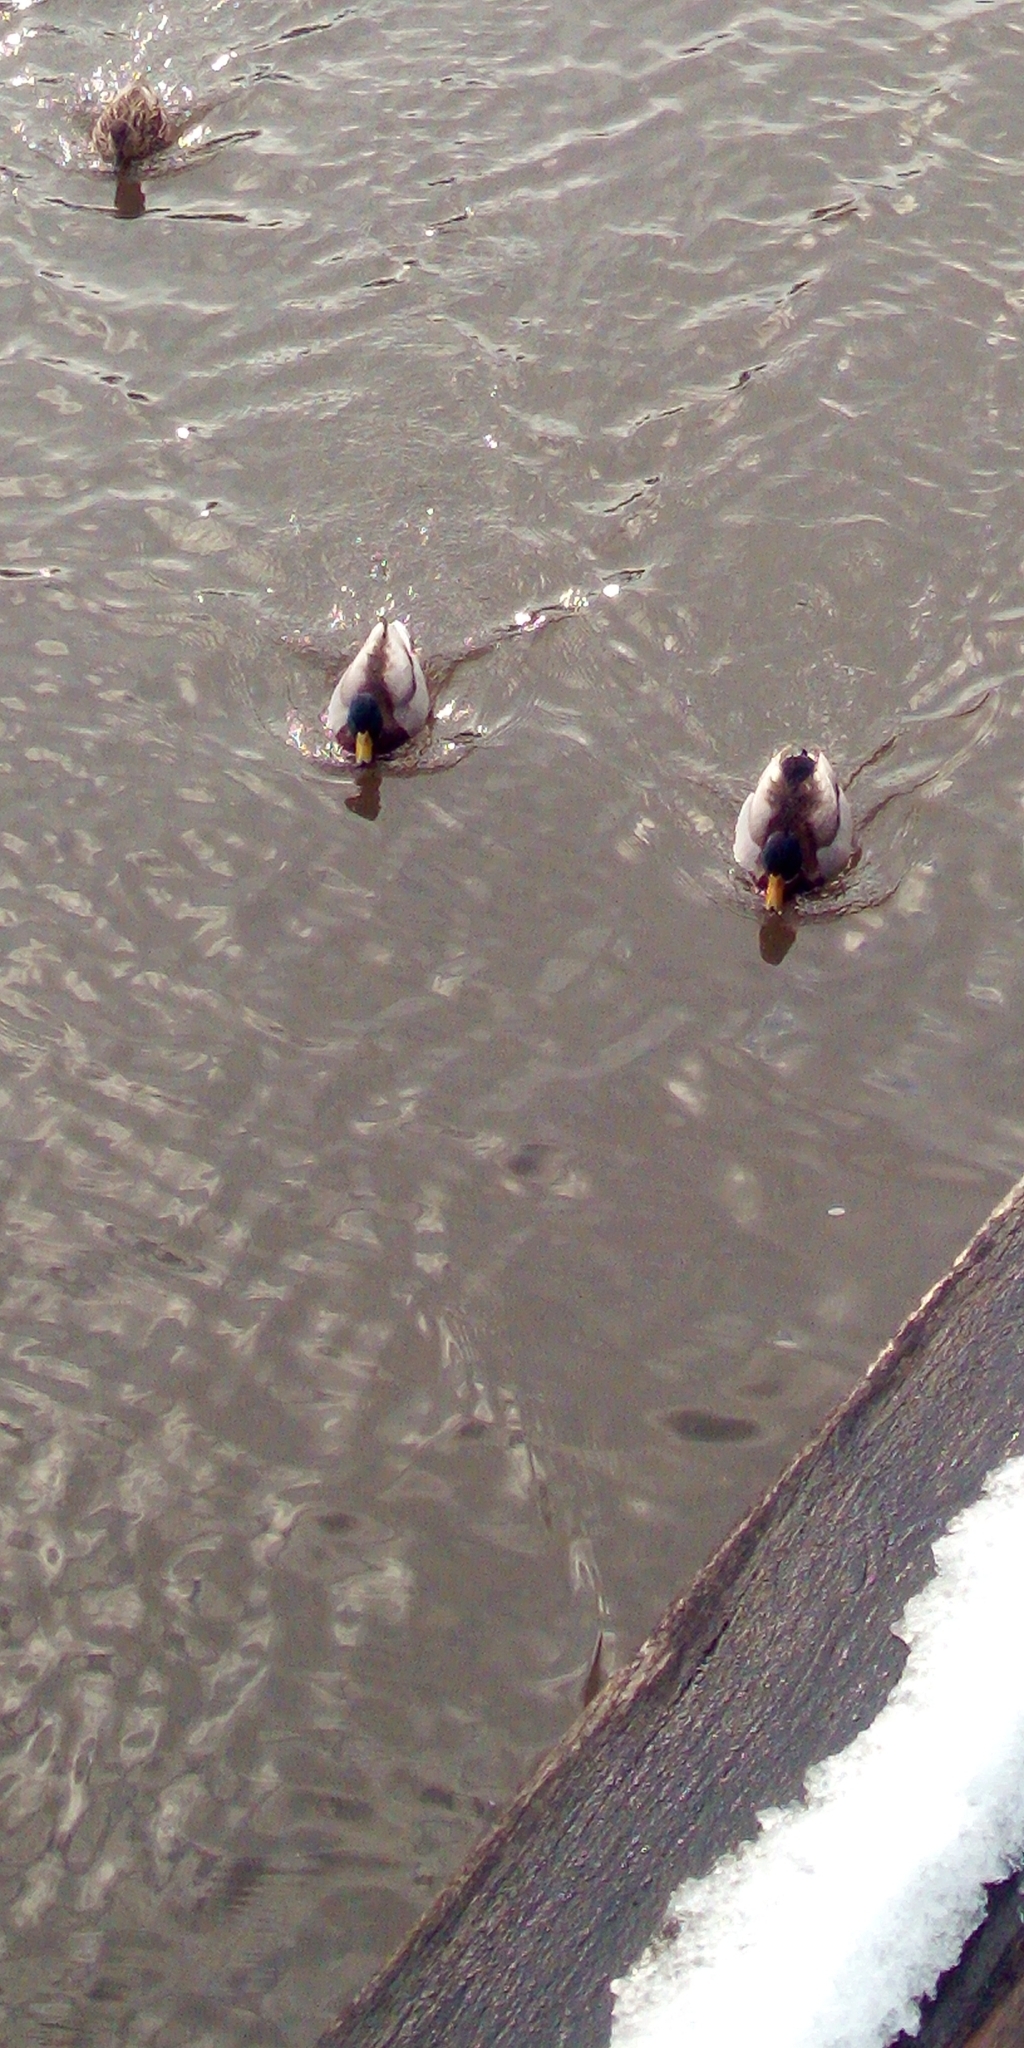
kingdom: Animalia
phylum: Chordata
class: Aves
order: Anseriformes
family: Anatidae
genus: Anas
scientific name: Anas platyrhynchos
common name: Mallard
